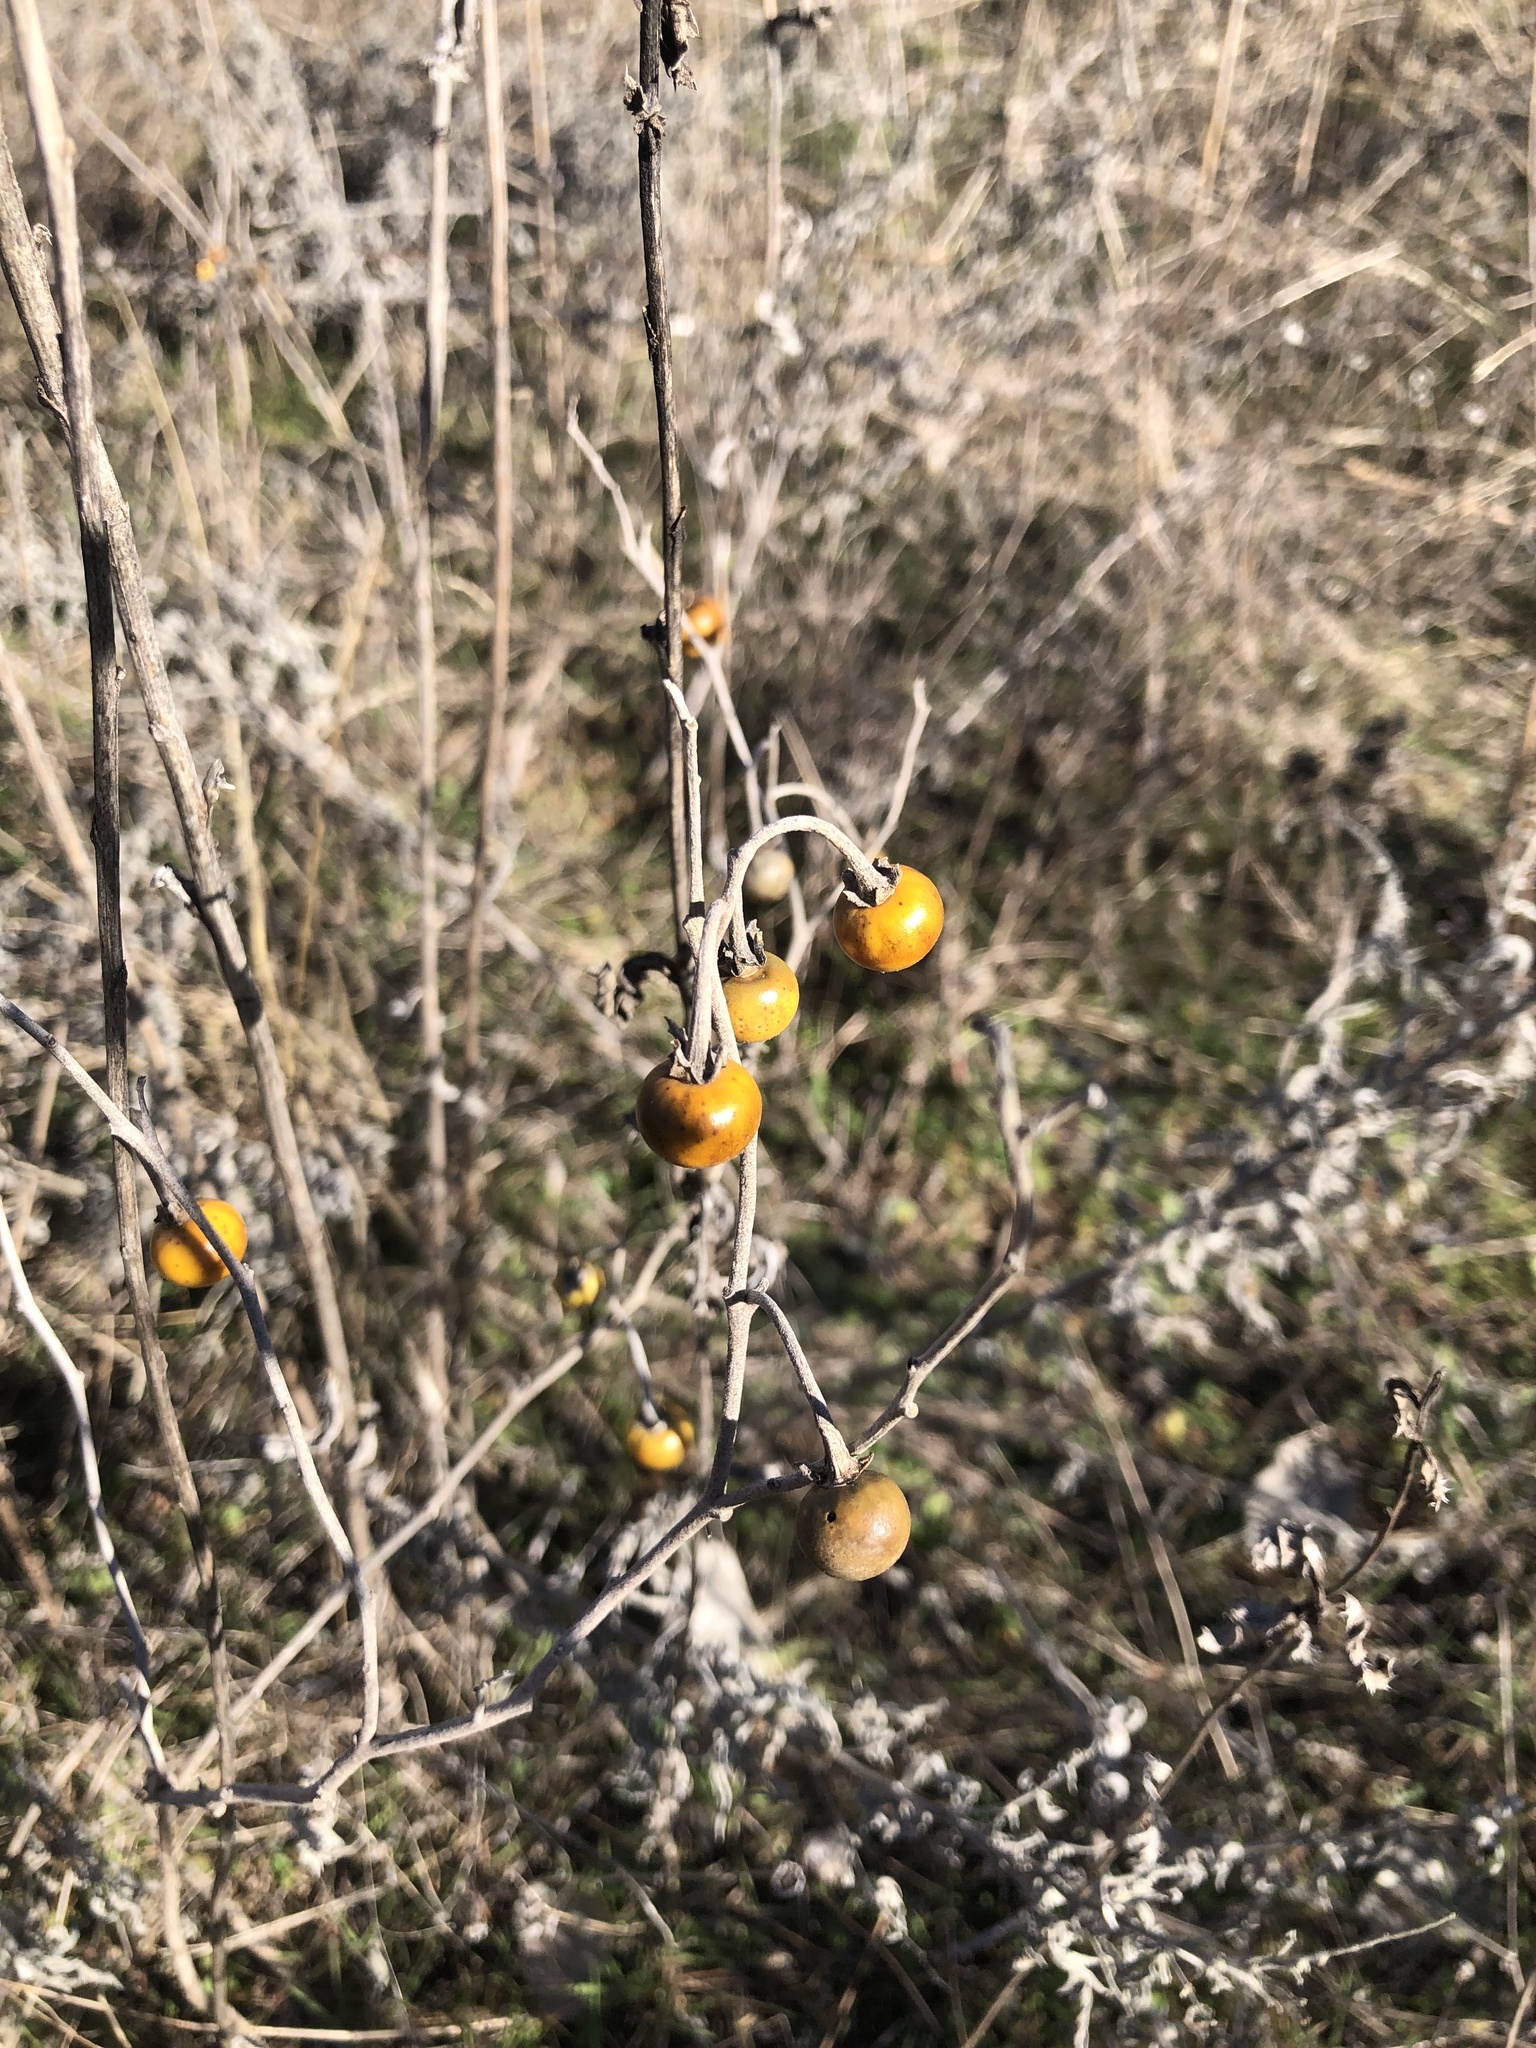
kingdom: Plantae
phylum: Tracheophyta
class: Magnoliopsida
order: Solanales
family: Solanaceae
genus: Solanum
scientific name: Solanum elaeagnifolium
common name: Silverleaf nightshade
